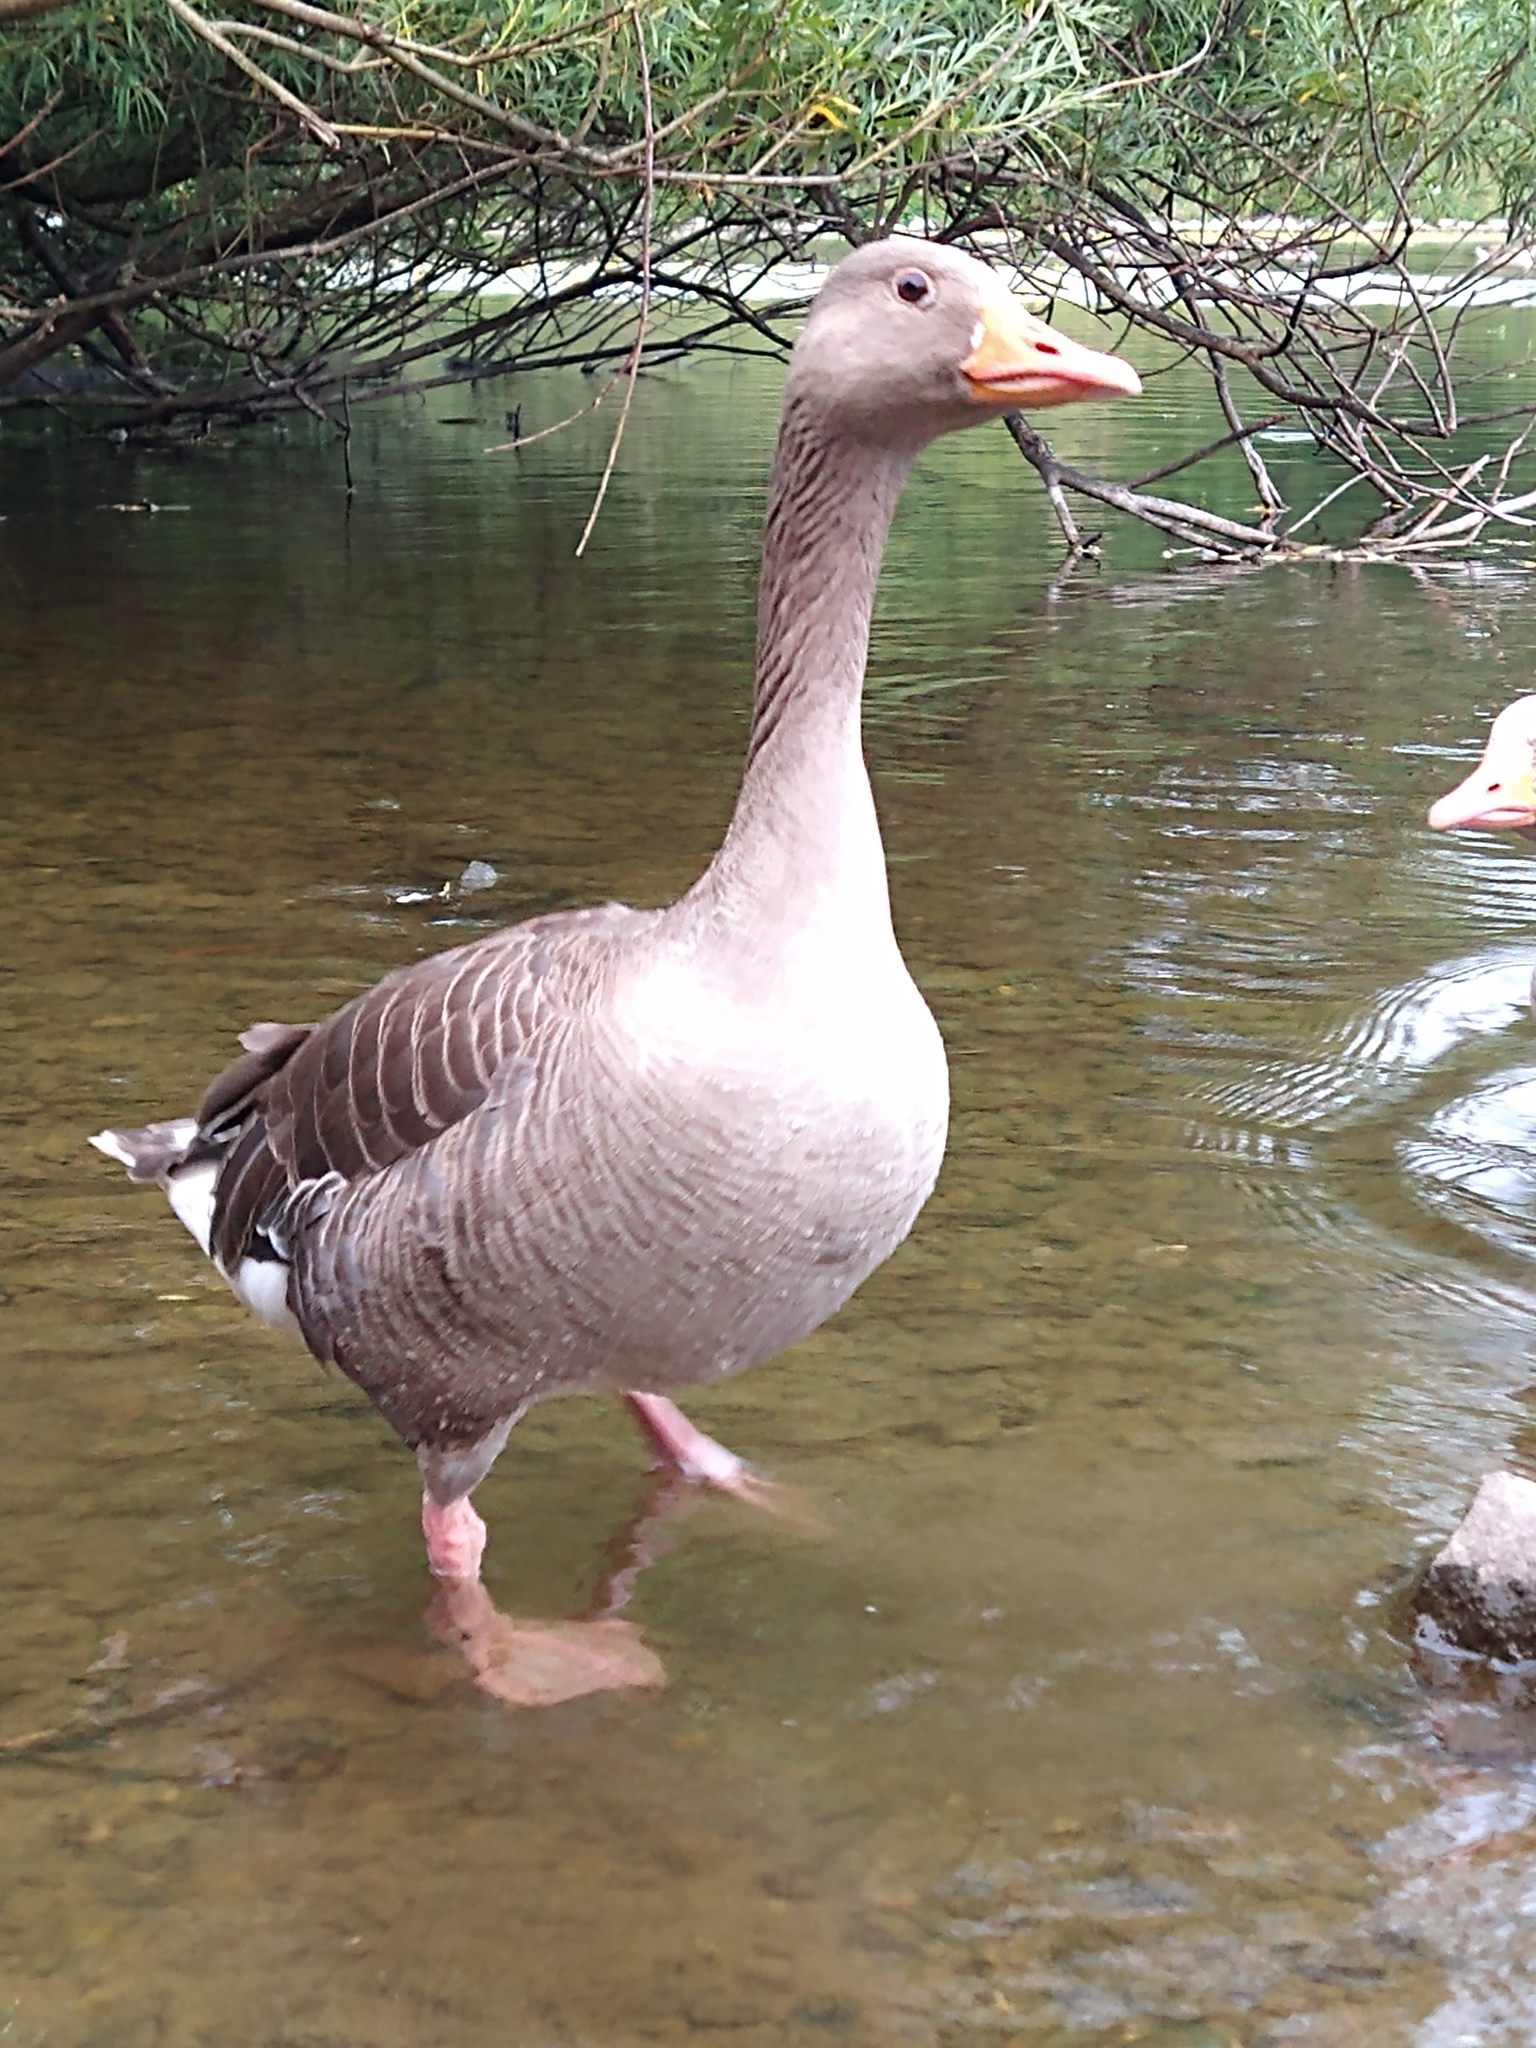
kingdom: Animalia
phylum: Chordata
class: Aves
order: Anseriformes
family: Anatidae
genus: Anser
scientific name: Anser anser
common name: Greylag goose
